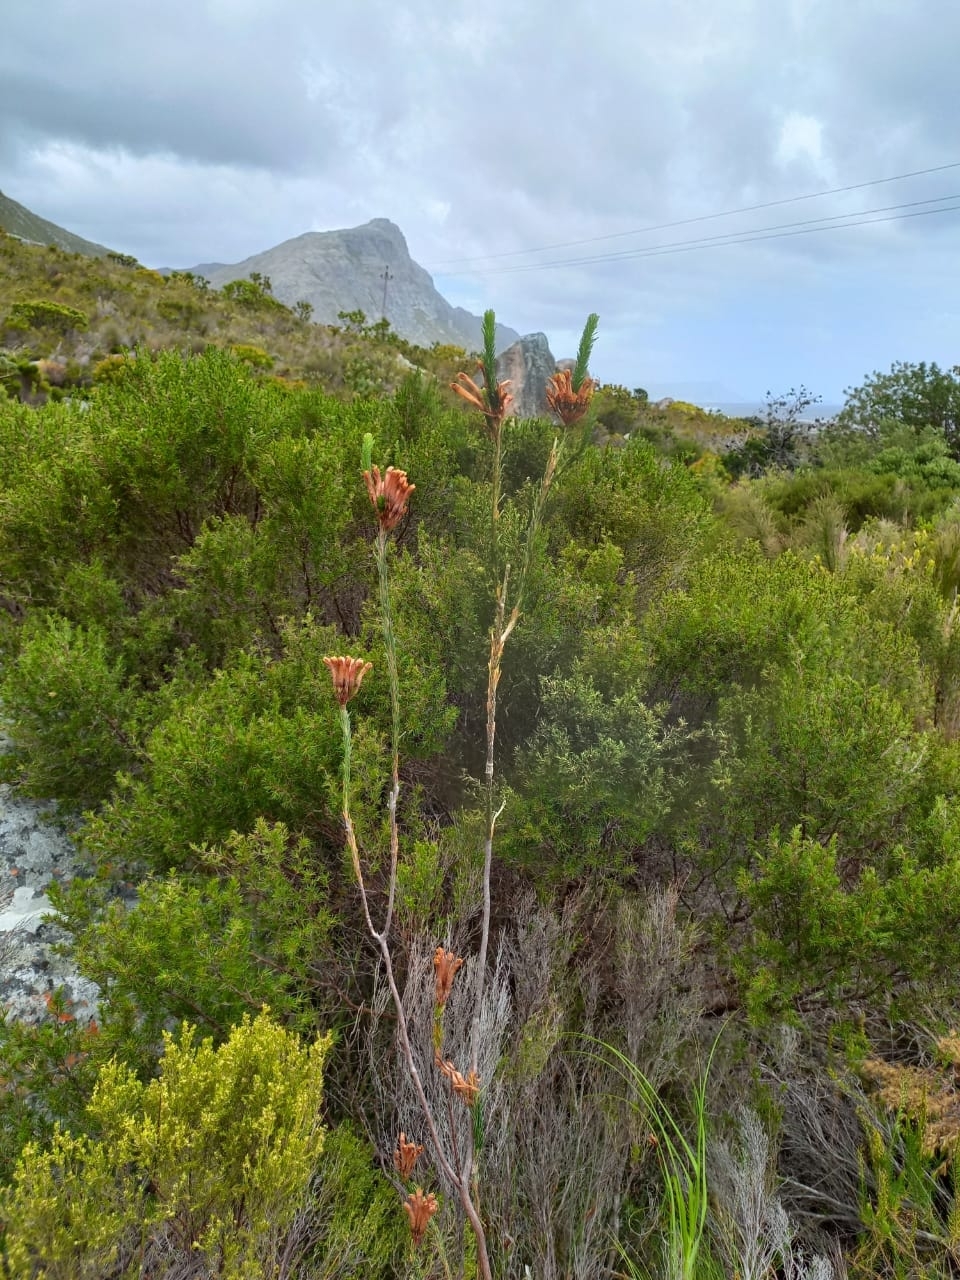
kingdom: Plantae
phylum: Tracheophyta
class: Magnoliopsida
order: Ericales
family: Ericaceae
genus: Erica
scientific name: Erica fascicularis
